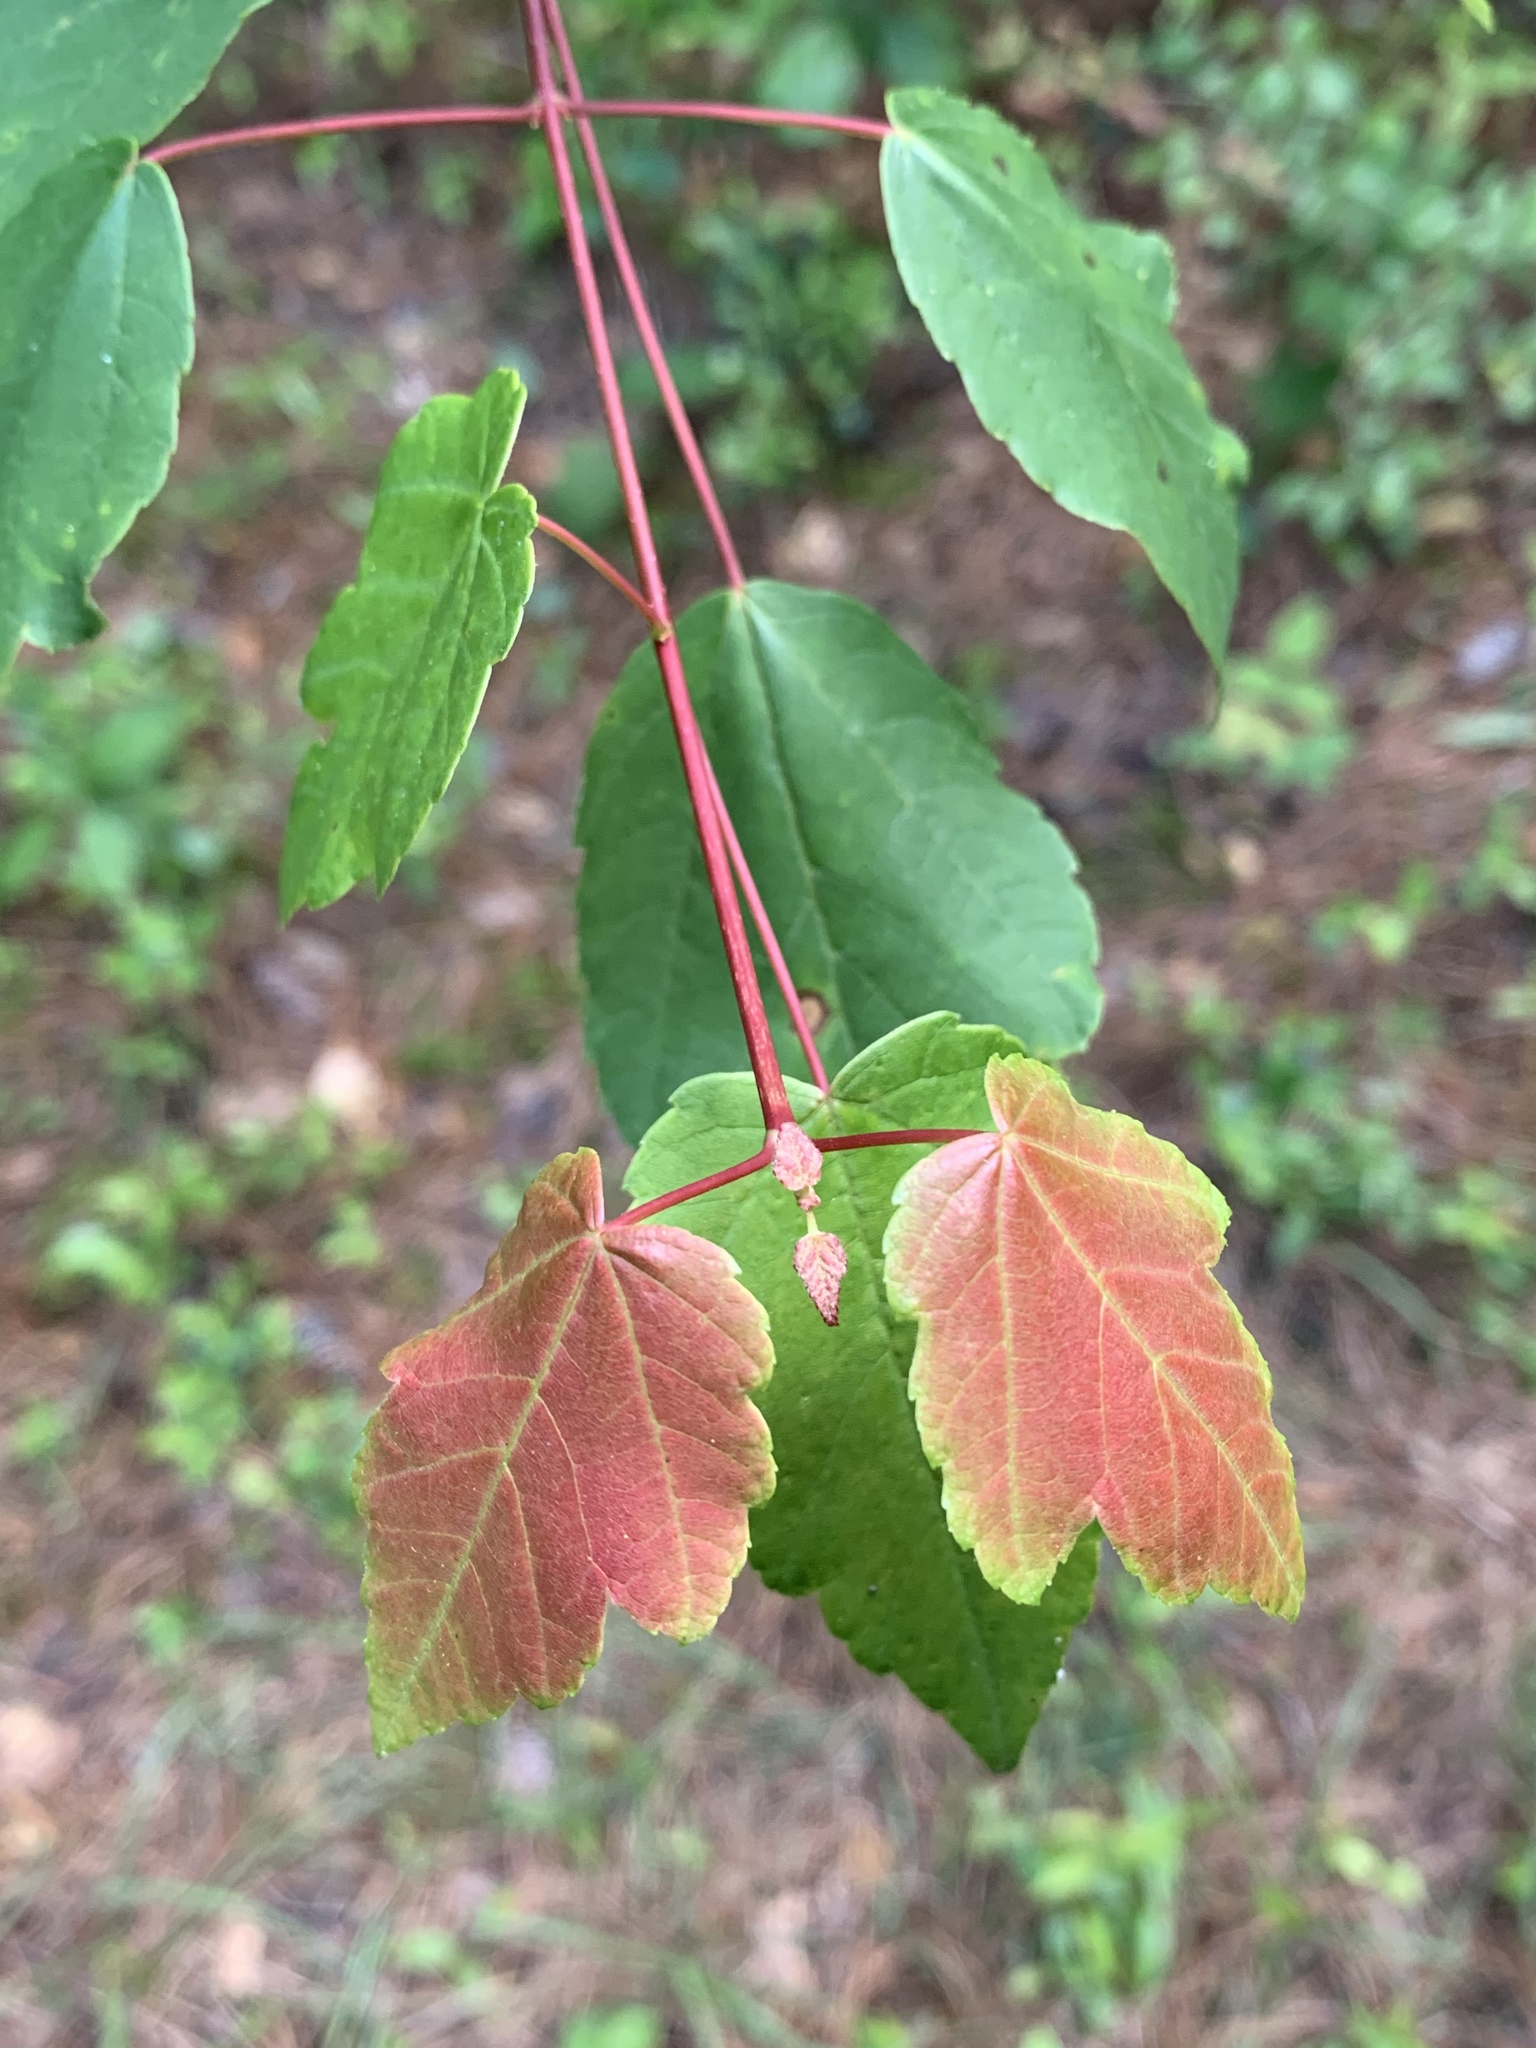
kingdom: Plantae
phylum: Tracheophyta
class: Magnoliopsida
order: Sapindales
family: Sapindaceae
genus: Acer
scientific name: Acer rubrum
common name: Red maple
